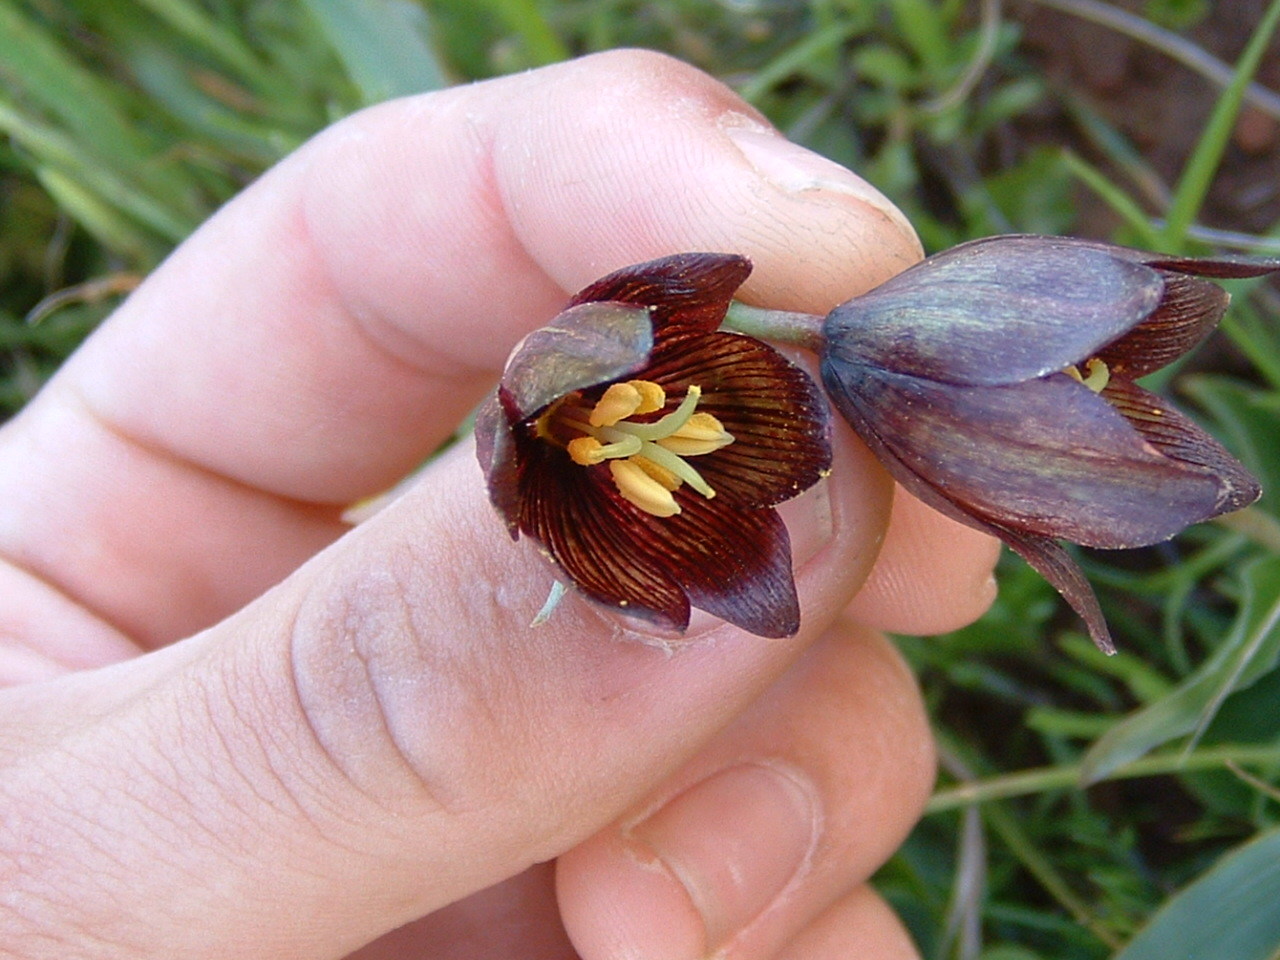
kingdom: Plantae
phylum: Tracheophyta
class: Liliopsida
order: Liliales
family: Liliaceae
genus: Fritillaria
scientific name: Fritillaria biflora
